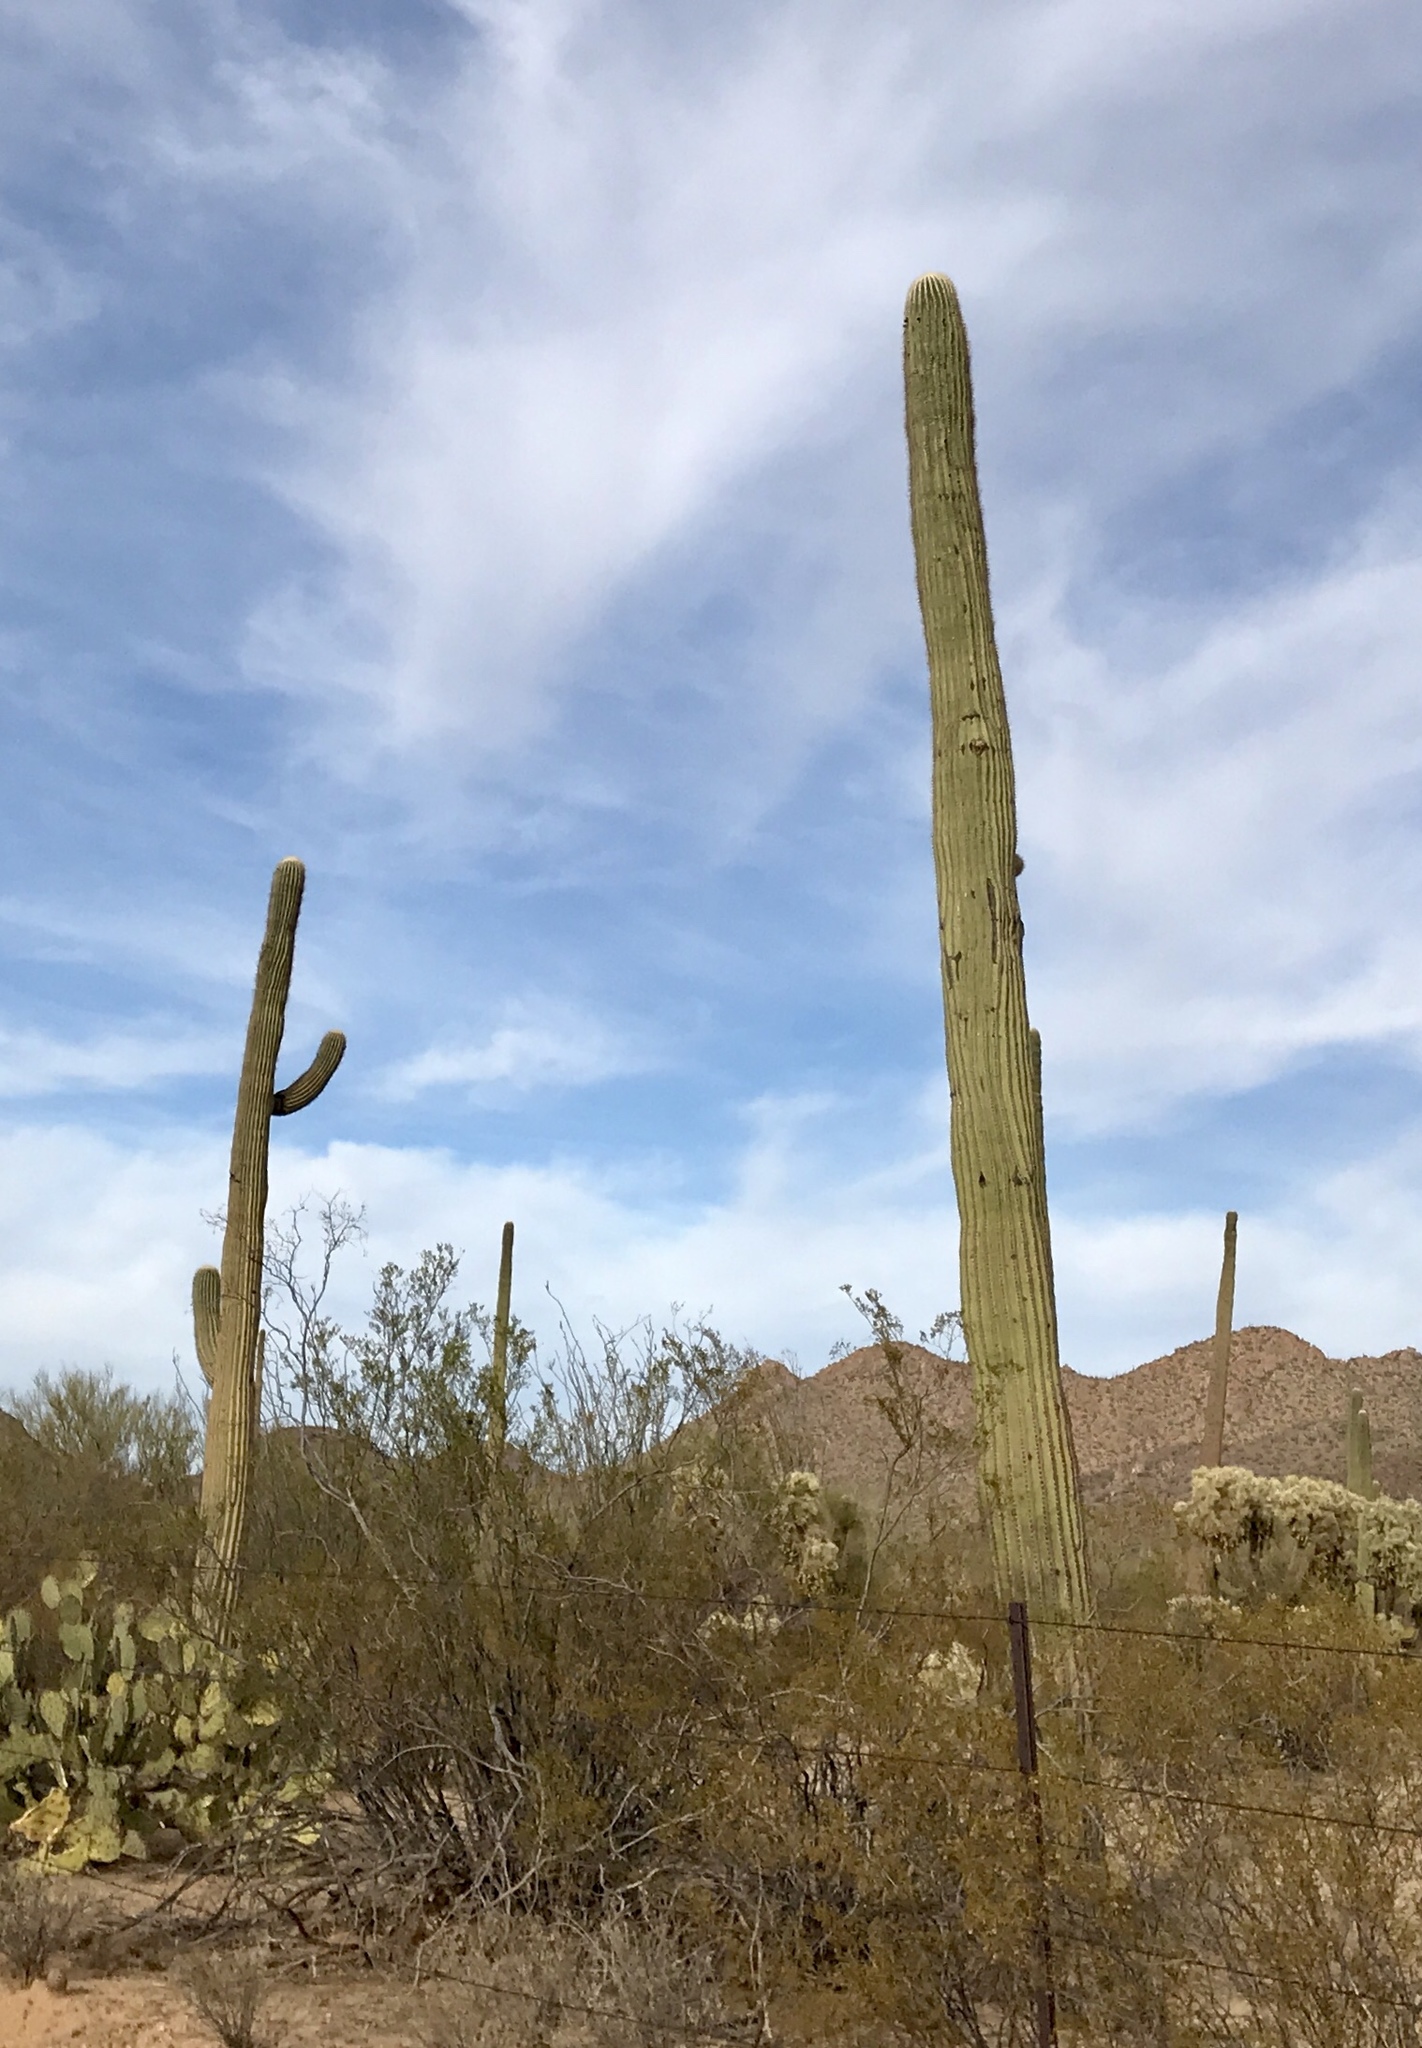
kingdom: Plantae
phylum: Tracheophyta
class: Magnoliopsida
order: Caryophyllales
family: Cactaceae
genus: Carnegiea
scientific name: Carnegiea gigantea
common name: Saguaro
